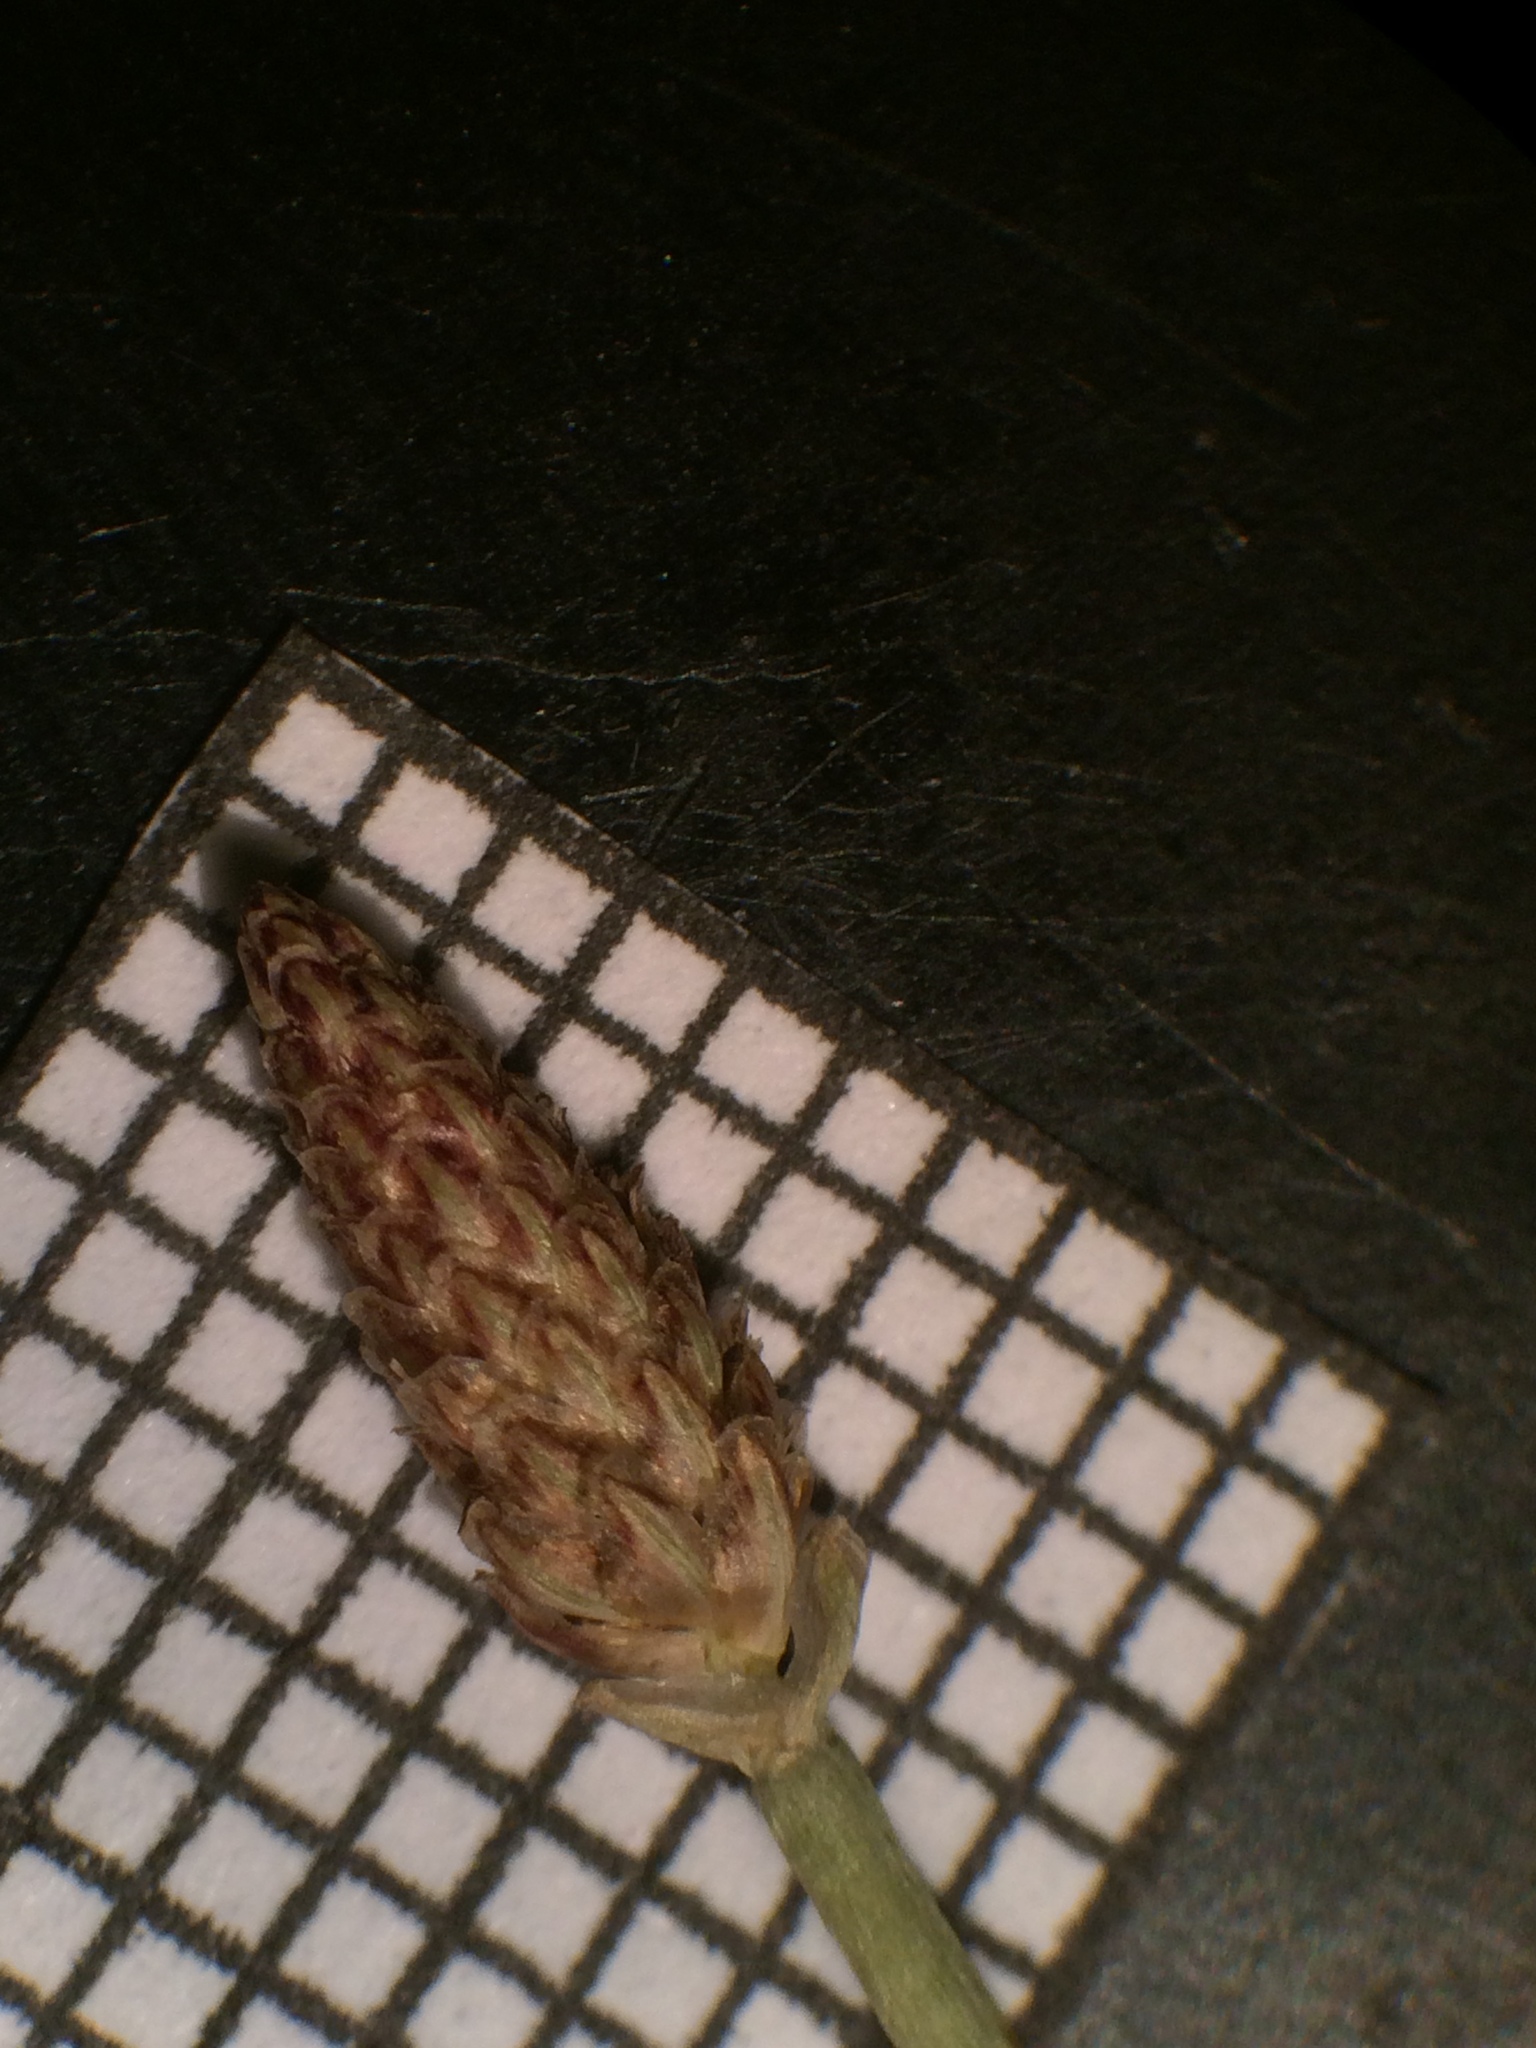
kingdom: Plantae
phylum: Tracheophyta
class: Liliopsida
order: Poales
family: Cyperaceae
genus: Eleocharis
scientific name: Eleocharis engelmannii
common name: Engelmann's spikerush
